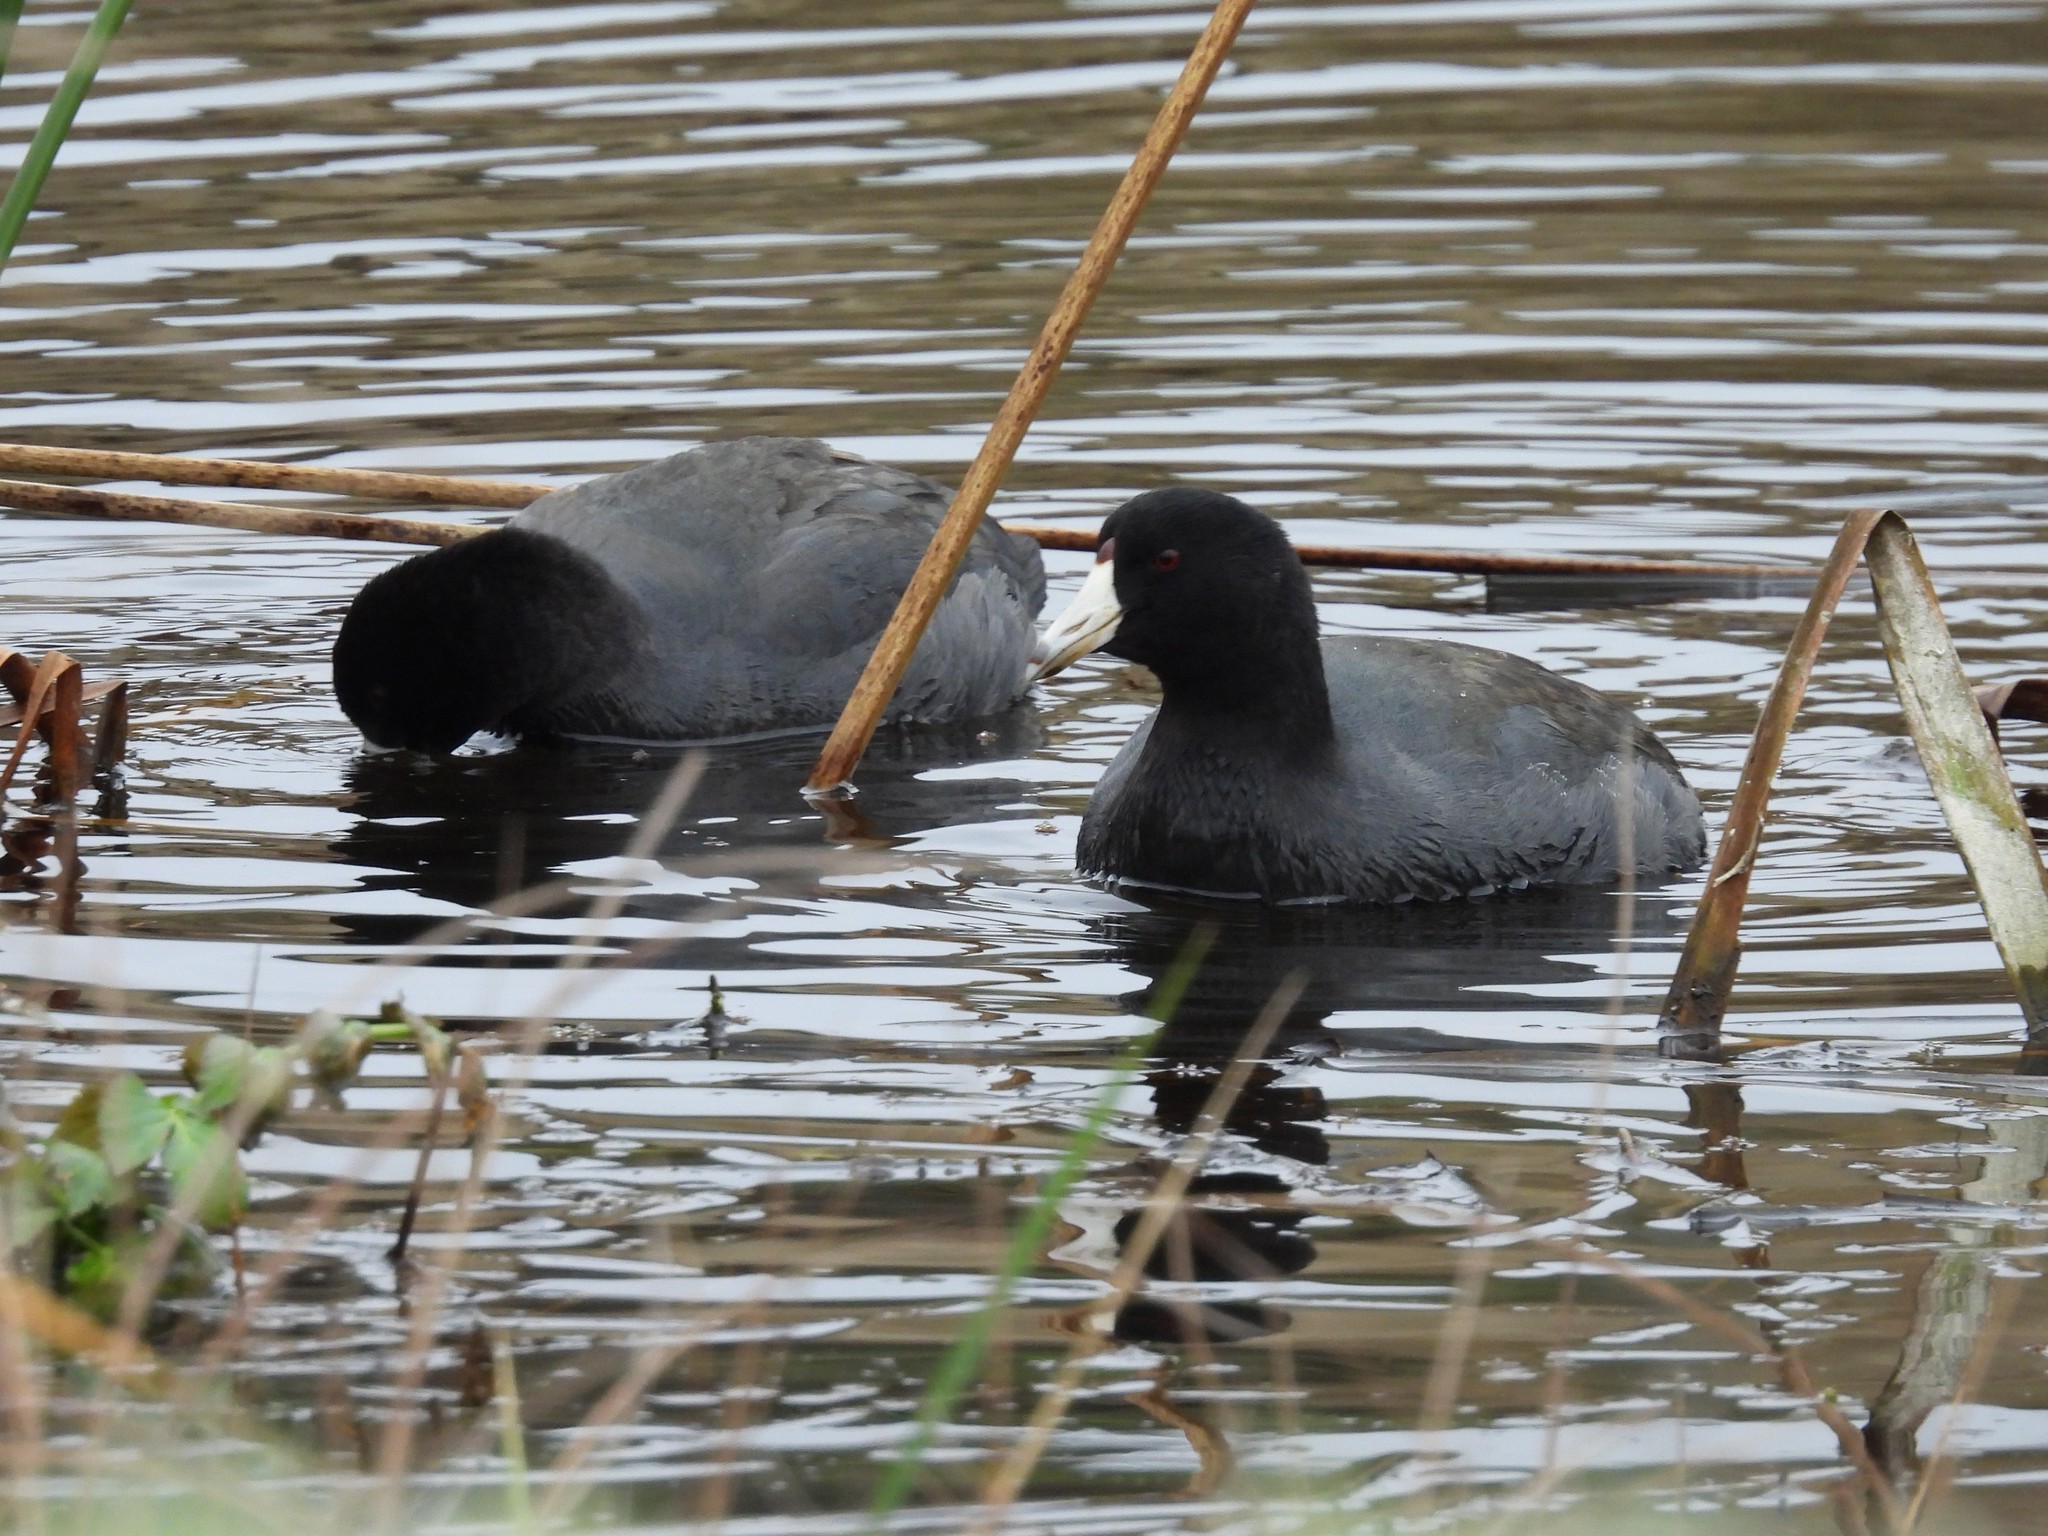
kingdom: Animalia
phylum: Chordata
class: Aves
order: Gruiformes
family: Rallidae
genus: Fulica
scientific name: Fulica americana
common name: American coot
